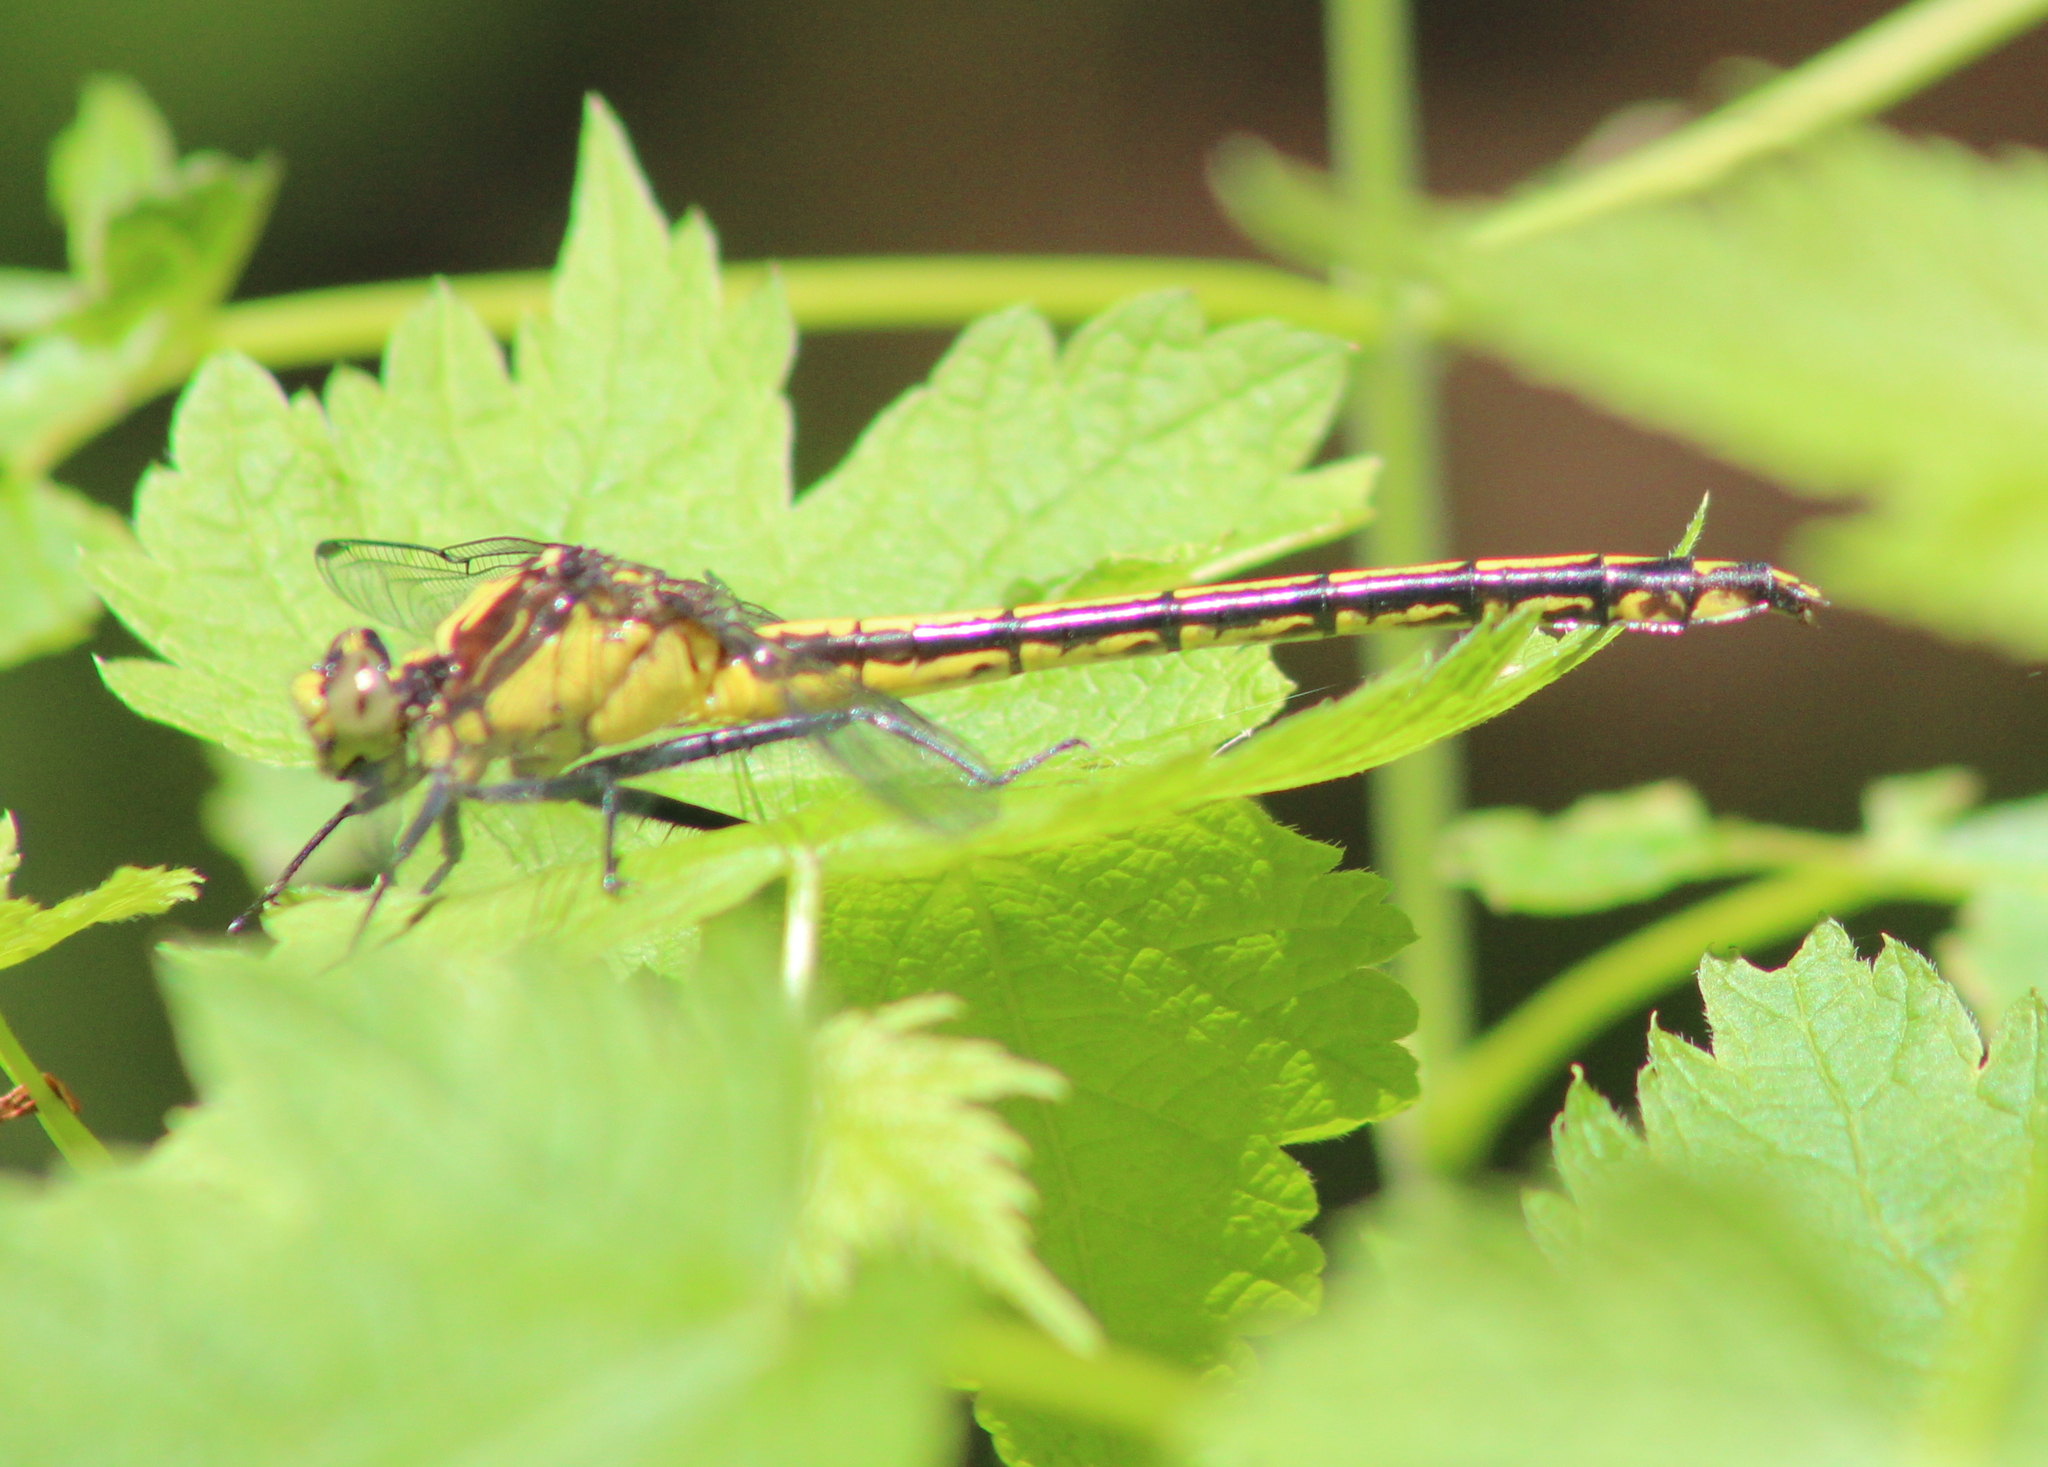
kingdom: Animalia
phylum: Arthropoda
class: Insecta
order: Odonata
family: Gomphidae
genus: Dromogomphus
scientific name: Dromogomphus spinosus
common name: Black-shouldered spinyleg
